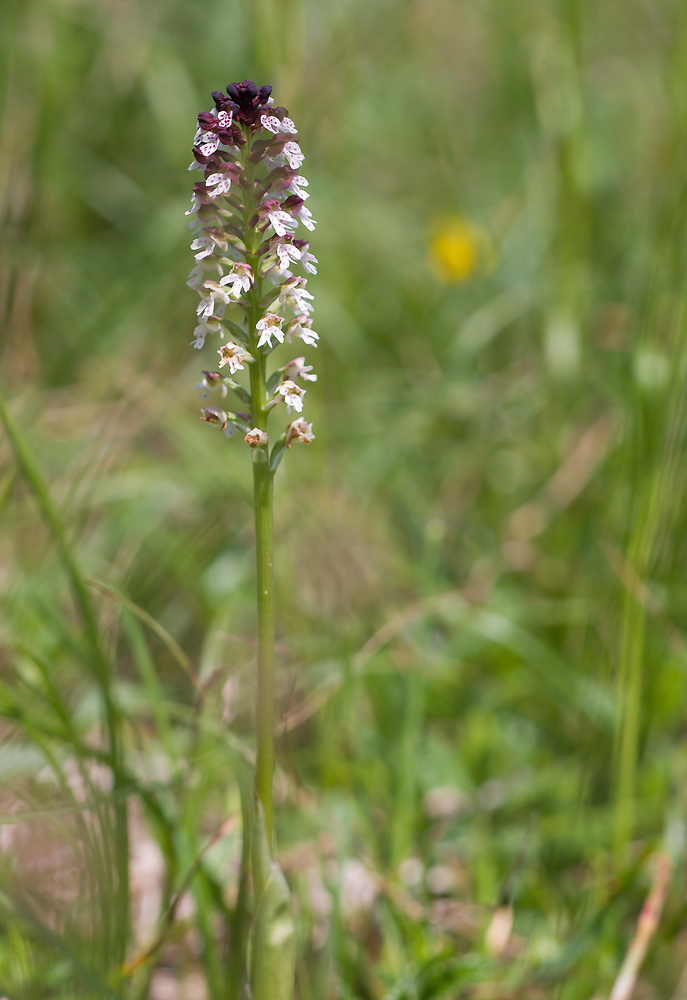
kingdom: Plantae
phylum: Tracheophyta
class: Liliopsida
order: Asparagales
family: Orchidaceae
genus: Neotinea
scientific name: Neotinea ustulata
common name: Burnt orchid
